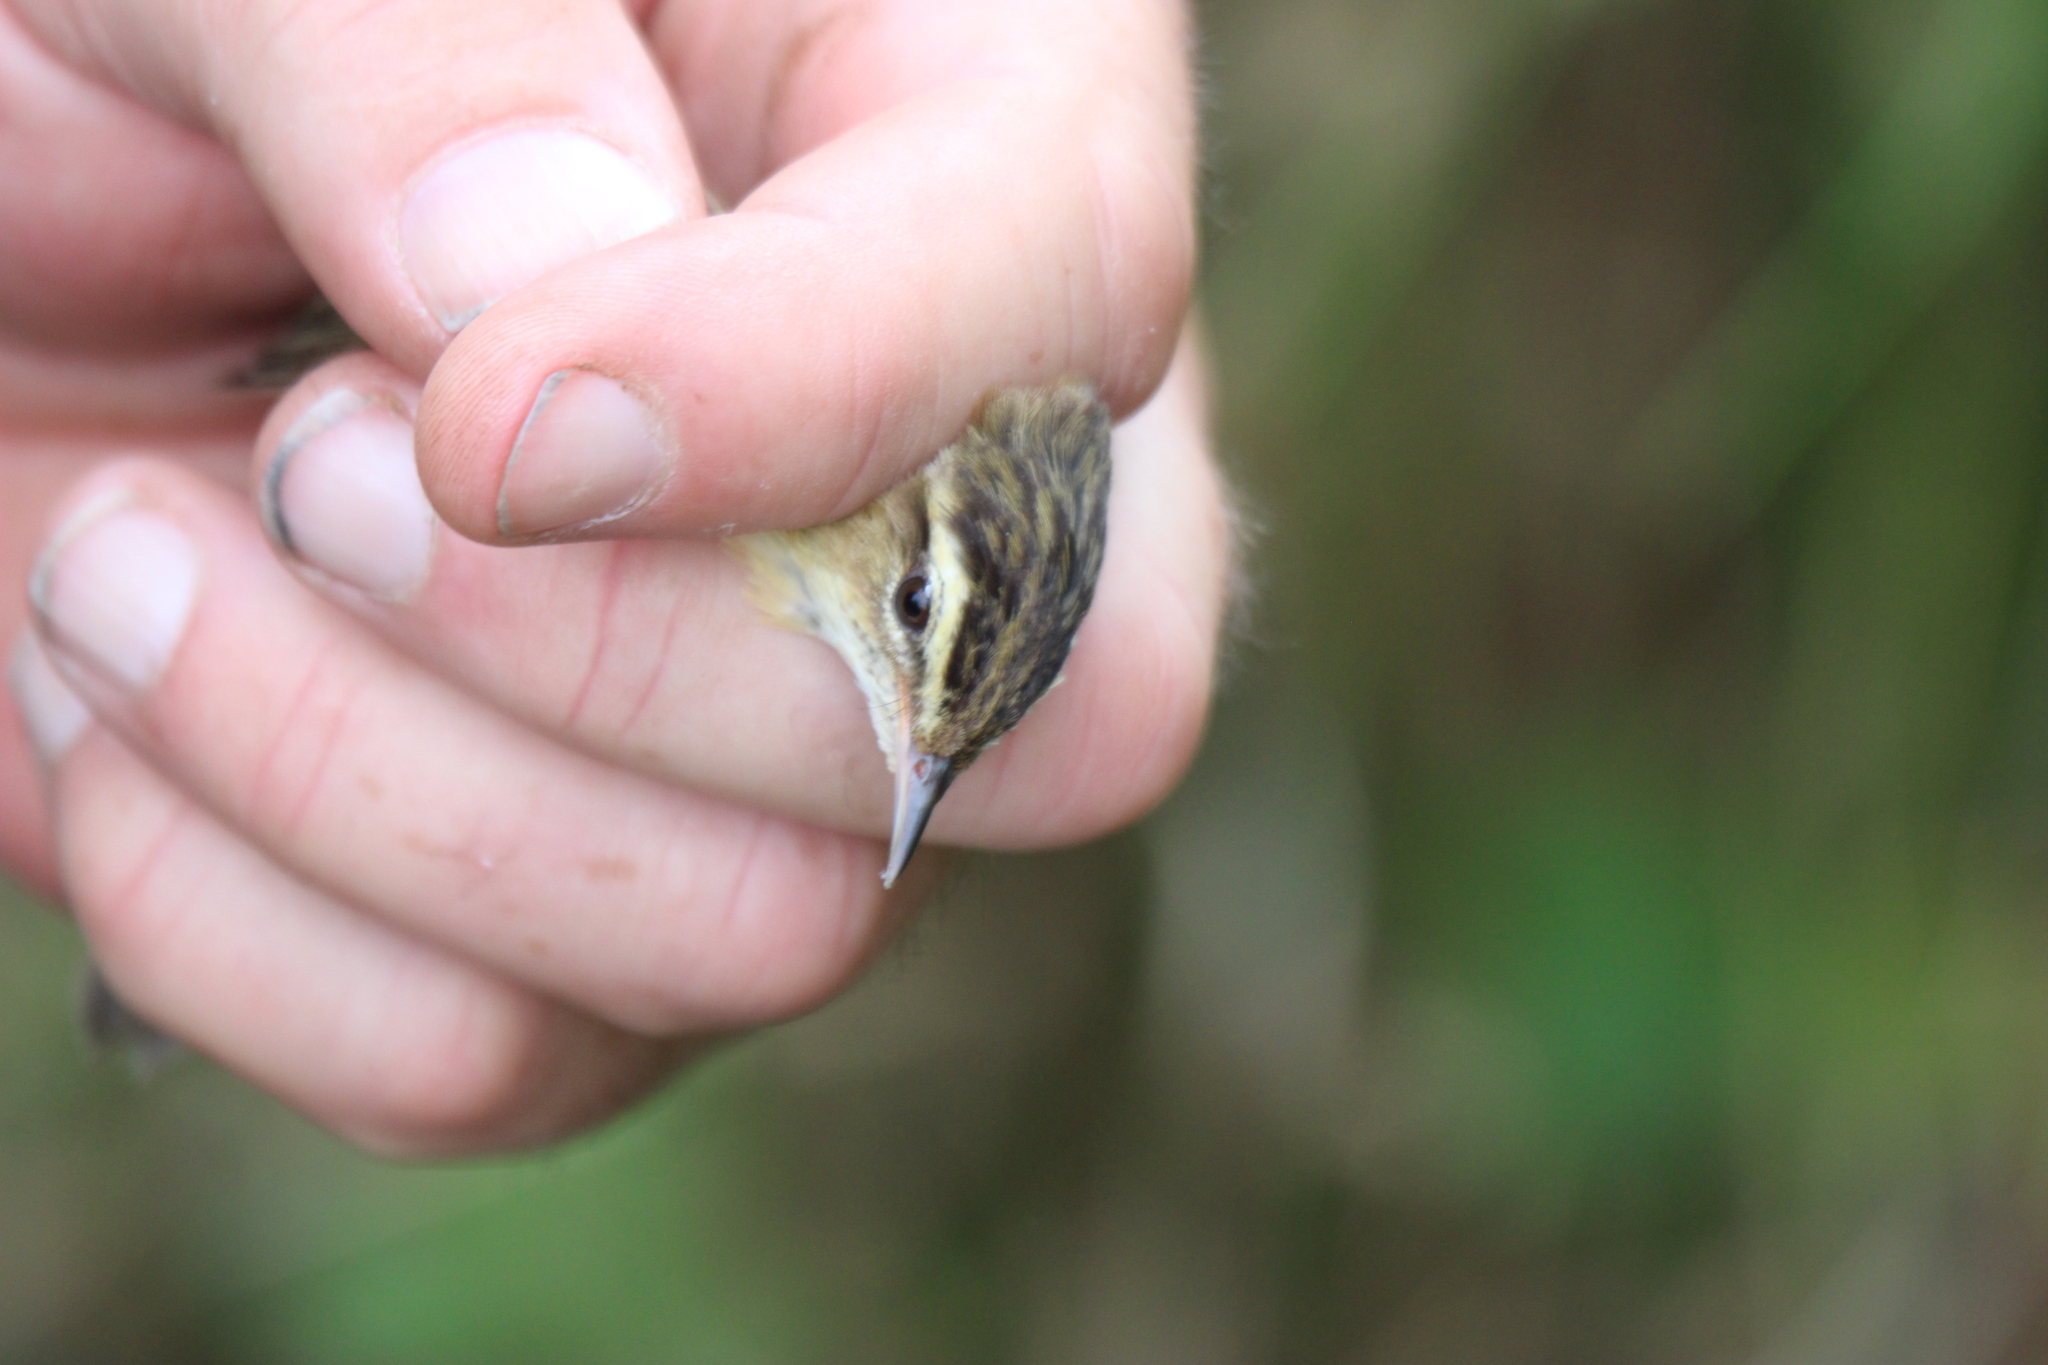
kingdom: Animalia
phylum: Chordata
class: Aves
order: Passeriformes
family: Acrocephalidae
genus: Acrocephalus
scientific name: Acrocephalus schoenobaenus
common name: Sedge warbler
